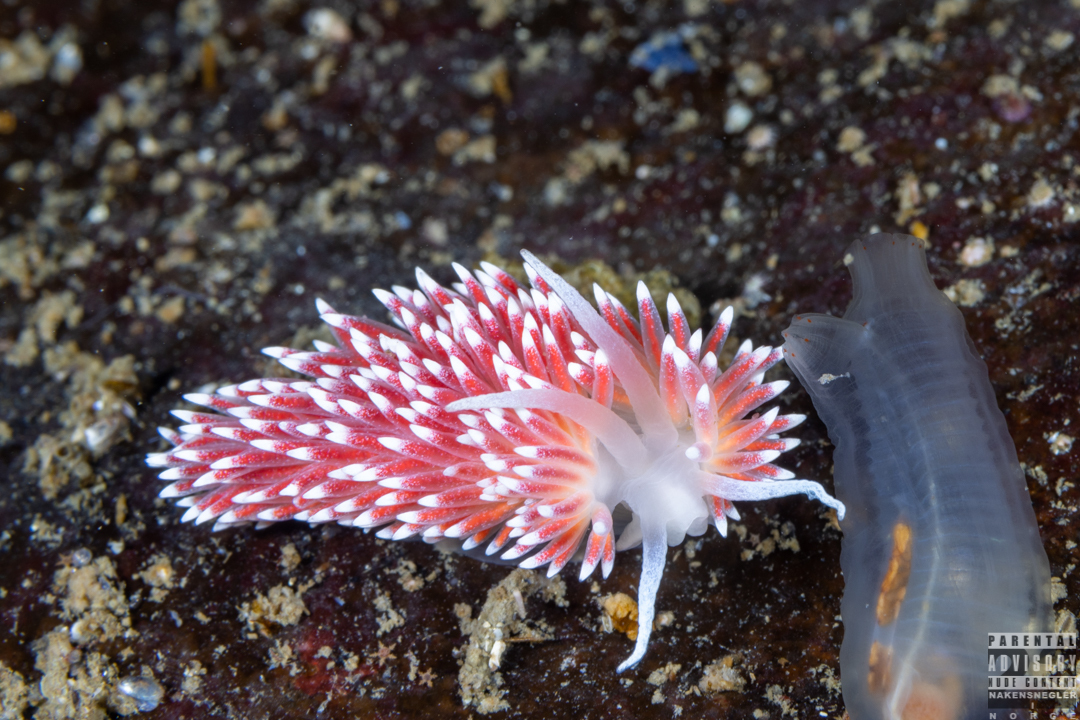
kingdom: Animalia
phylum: Mollusca
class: Gastropoda
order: Nudibranchia
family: Flabellinidae
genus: Carronella
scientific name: Carronella pellucida
